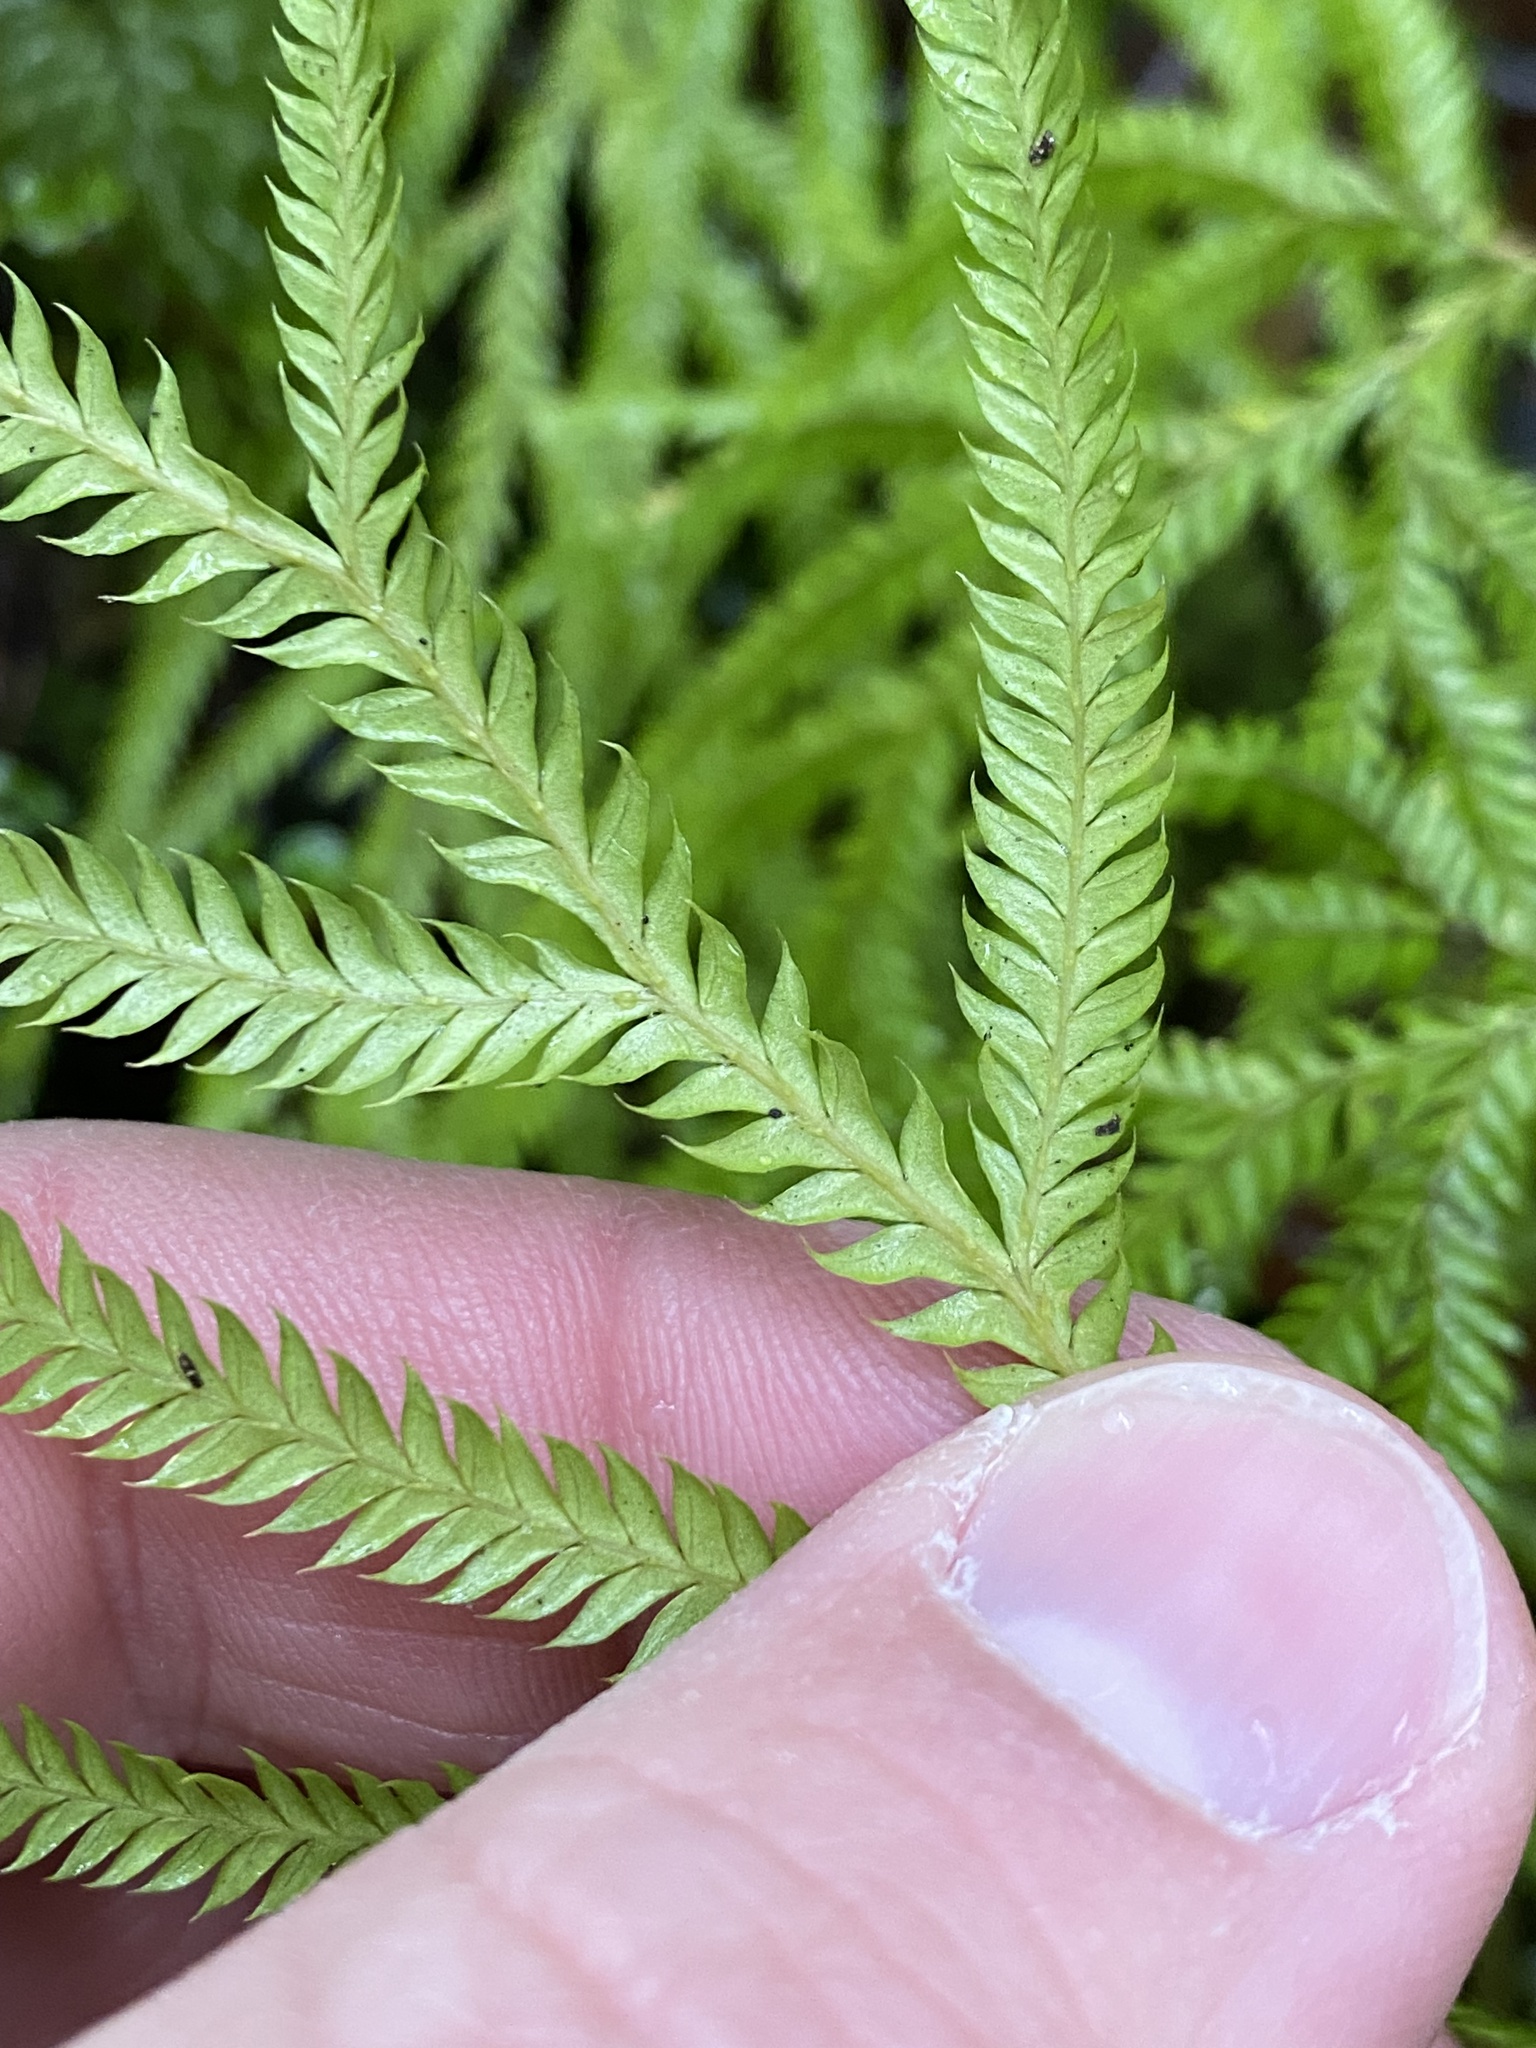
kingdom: Plantae
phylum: Tracheophyta
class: Lycopodiopsida
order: Lycopodiales
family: Lycopodiaceae
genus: Lycopodium
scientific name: Lycopodium volubile
